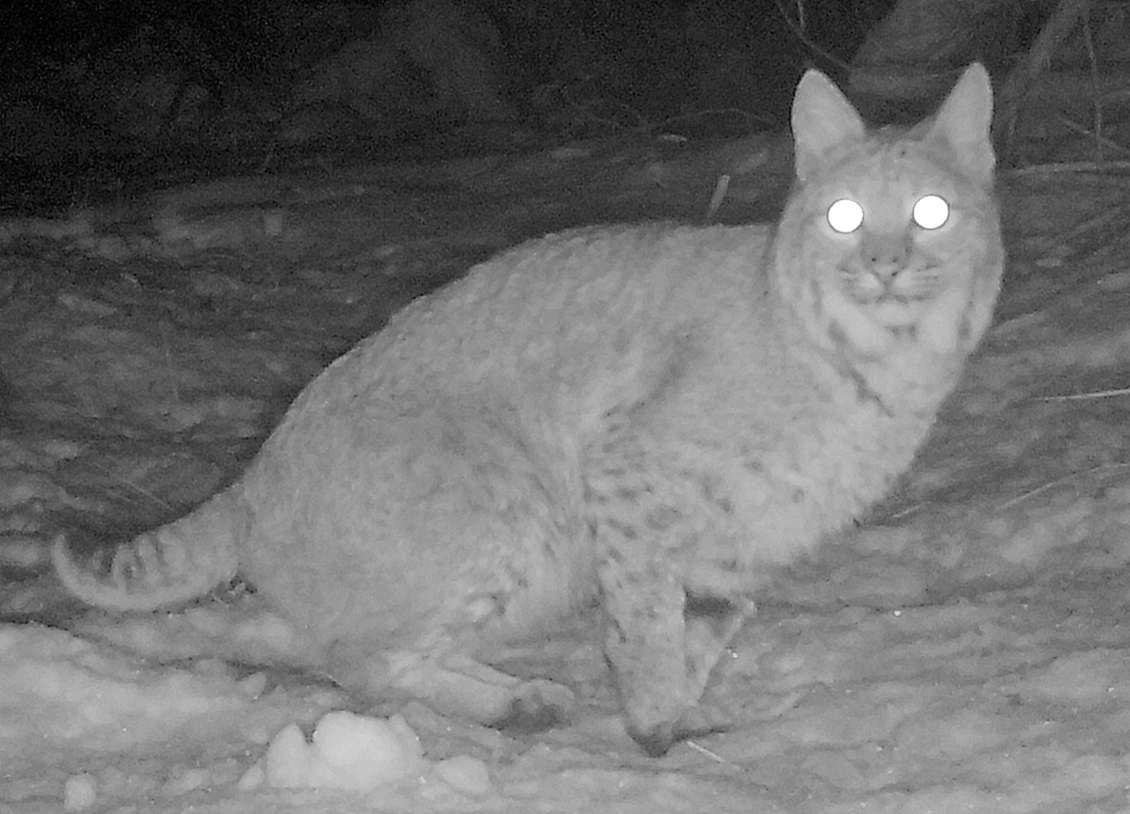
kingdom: Animalia
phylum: Chordata
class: Mammalia
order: Carnivora
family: Felidae
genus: Lynx
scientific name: Lynx rufus
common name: Bobcat
